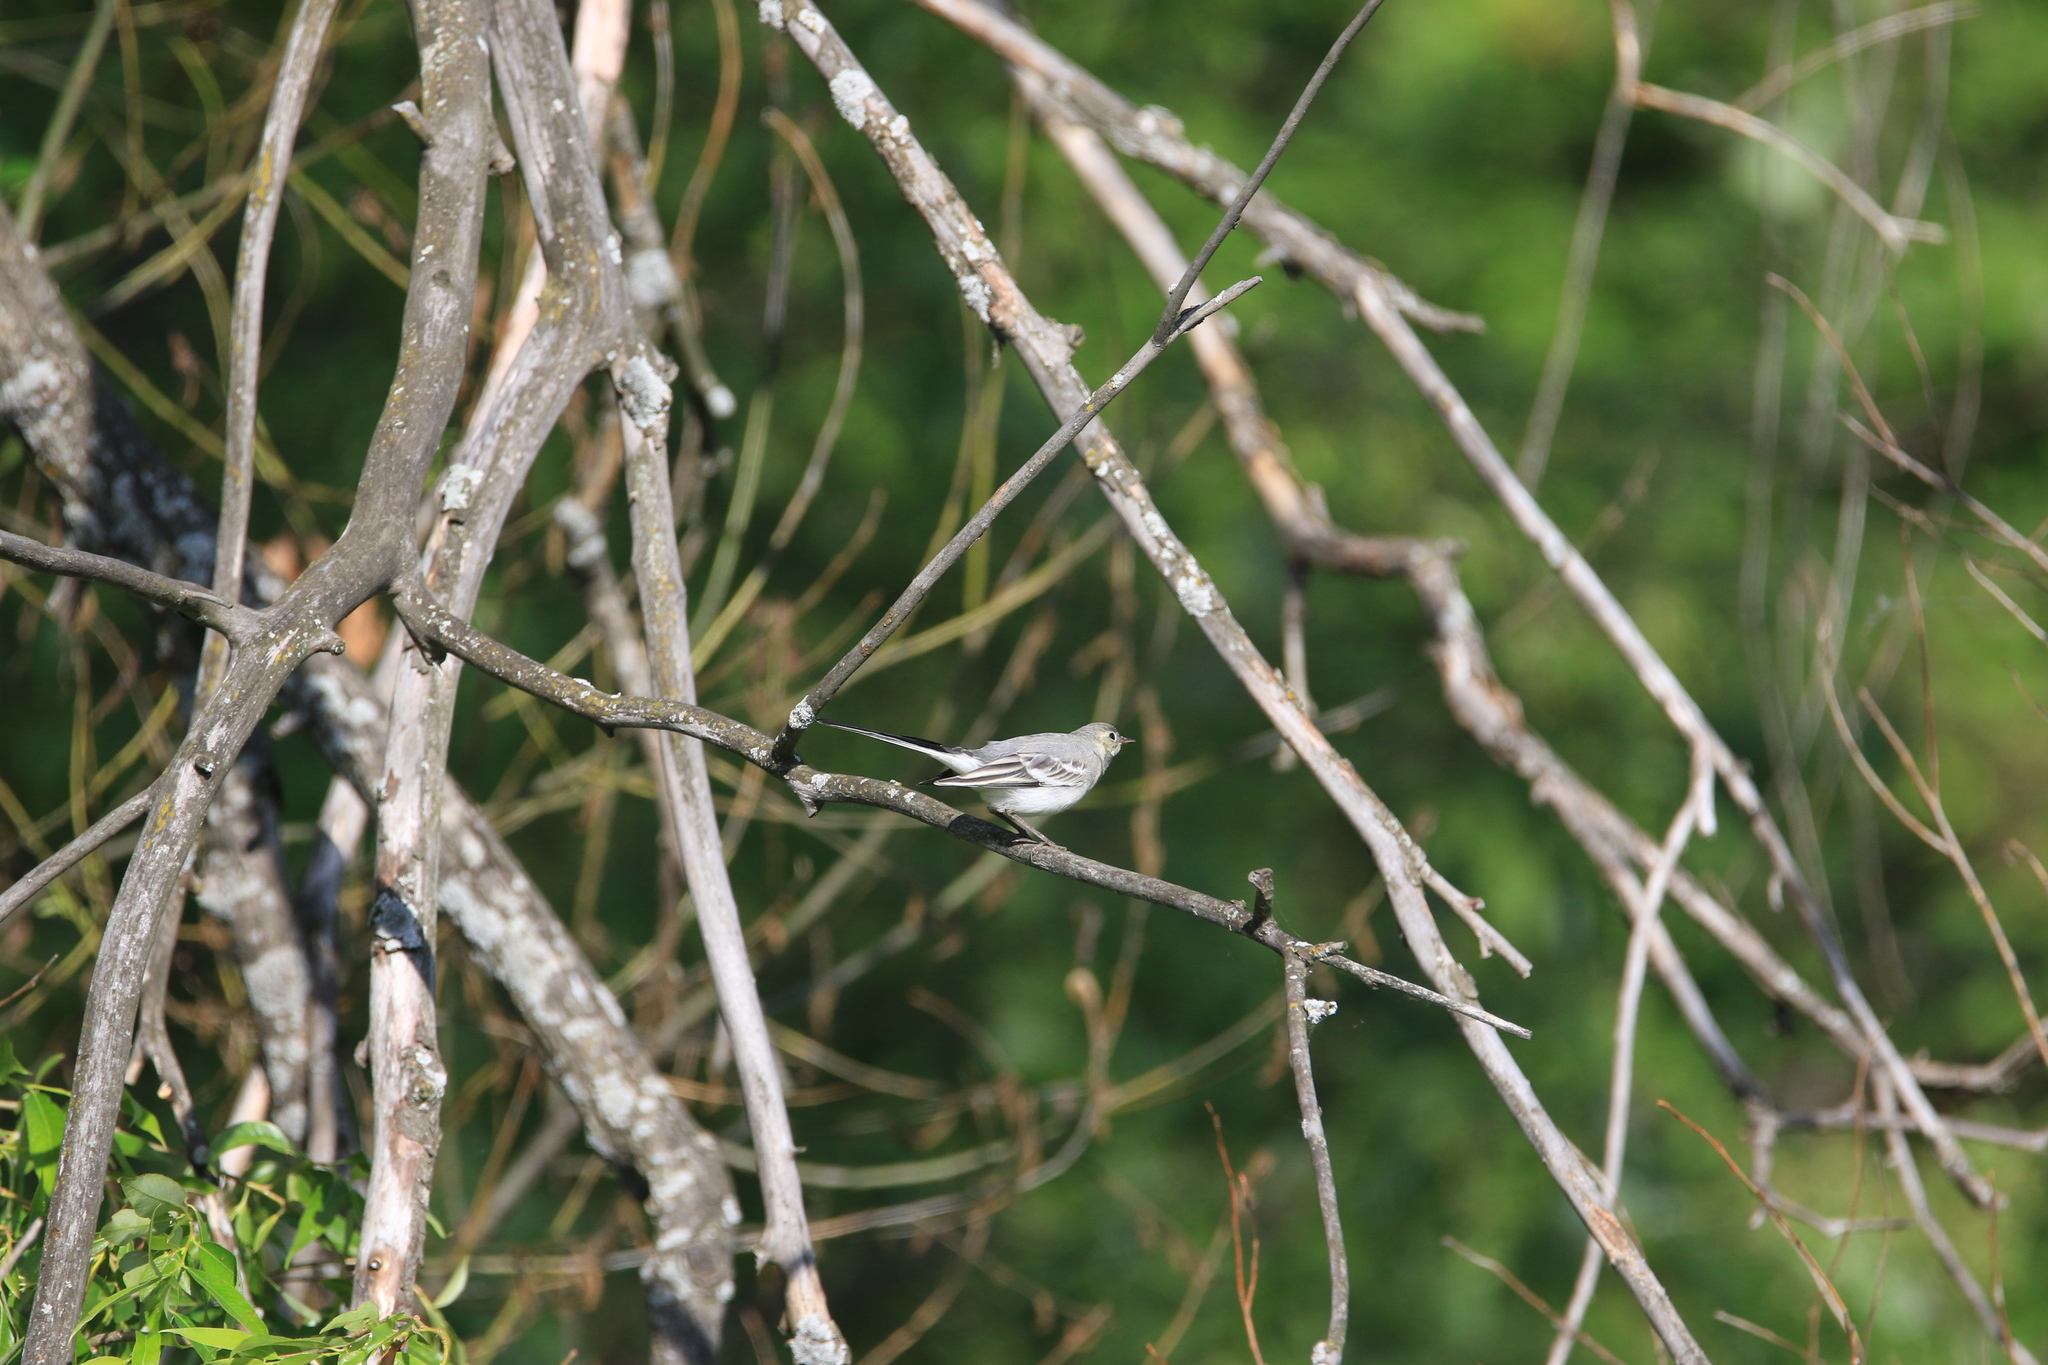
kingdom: Animalia
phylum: Chordata
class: Aves
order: Passeriformes
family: Motacillidae
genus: Motacilla
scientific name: Motacilla alba
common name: White wagtail
